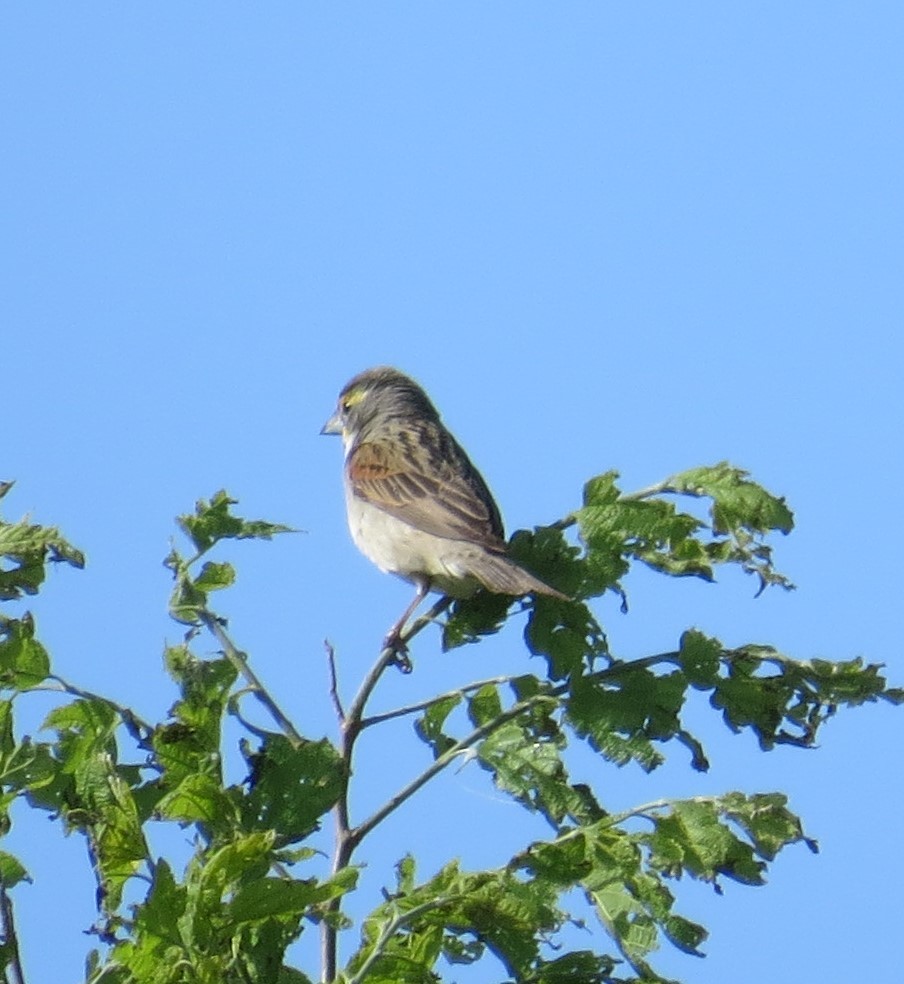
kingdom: Animalia
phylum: Chordata
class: Aves
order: Passeriformes
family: Cardinalidae
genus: Spiza
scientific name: Spiza americana
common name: Dickcissel
